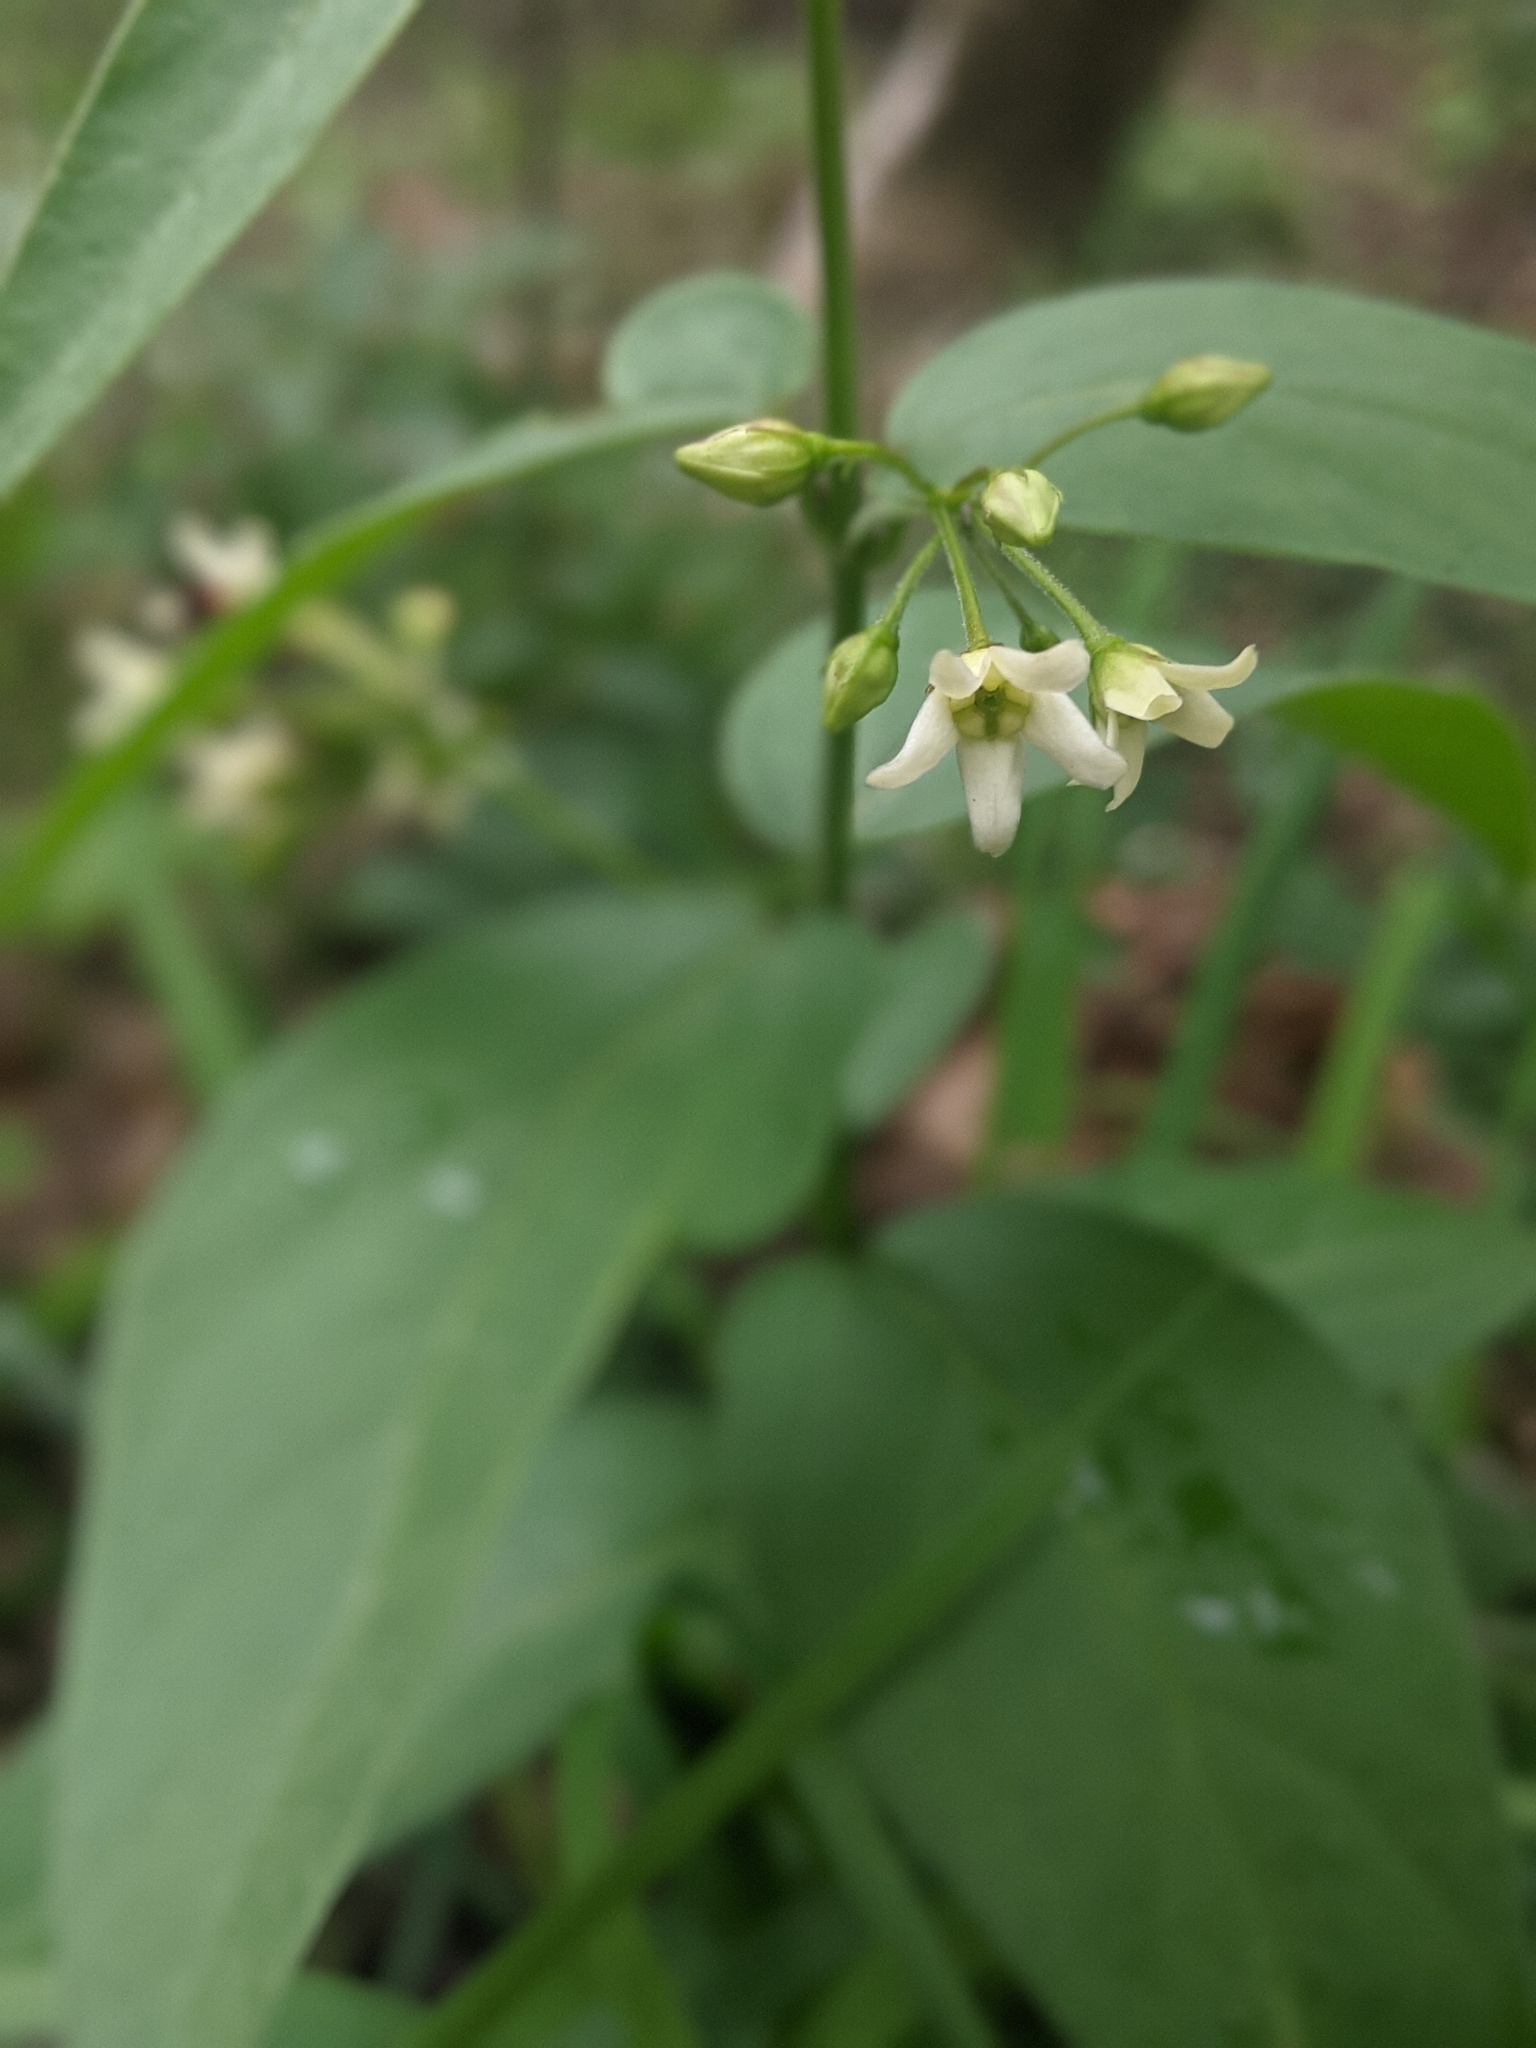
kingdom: Plantae
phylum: Tracheophyta
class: Magnoliopsida
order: Gentianales
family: Apocynaceae
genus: Vincetoxicum
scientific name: Vincetoxicum hirundinaria
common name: White swallowwort
